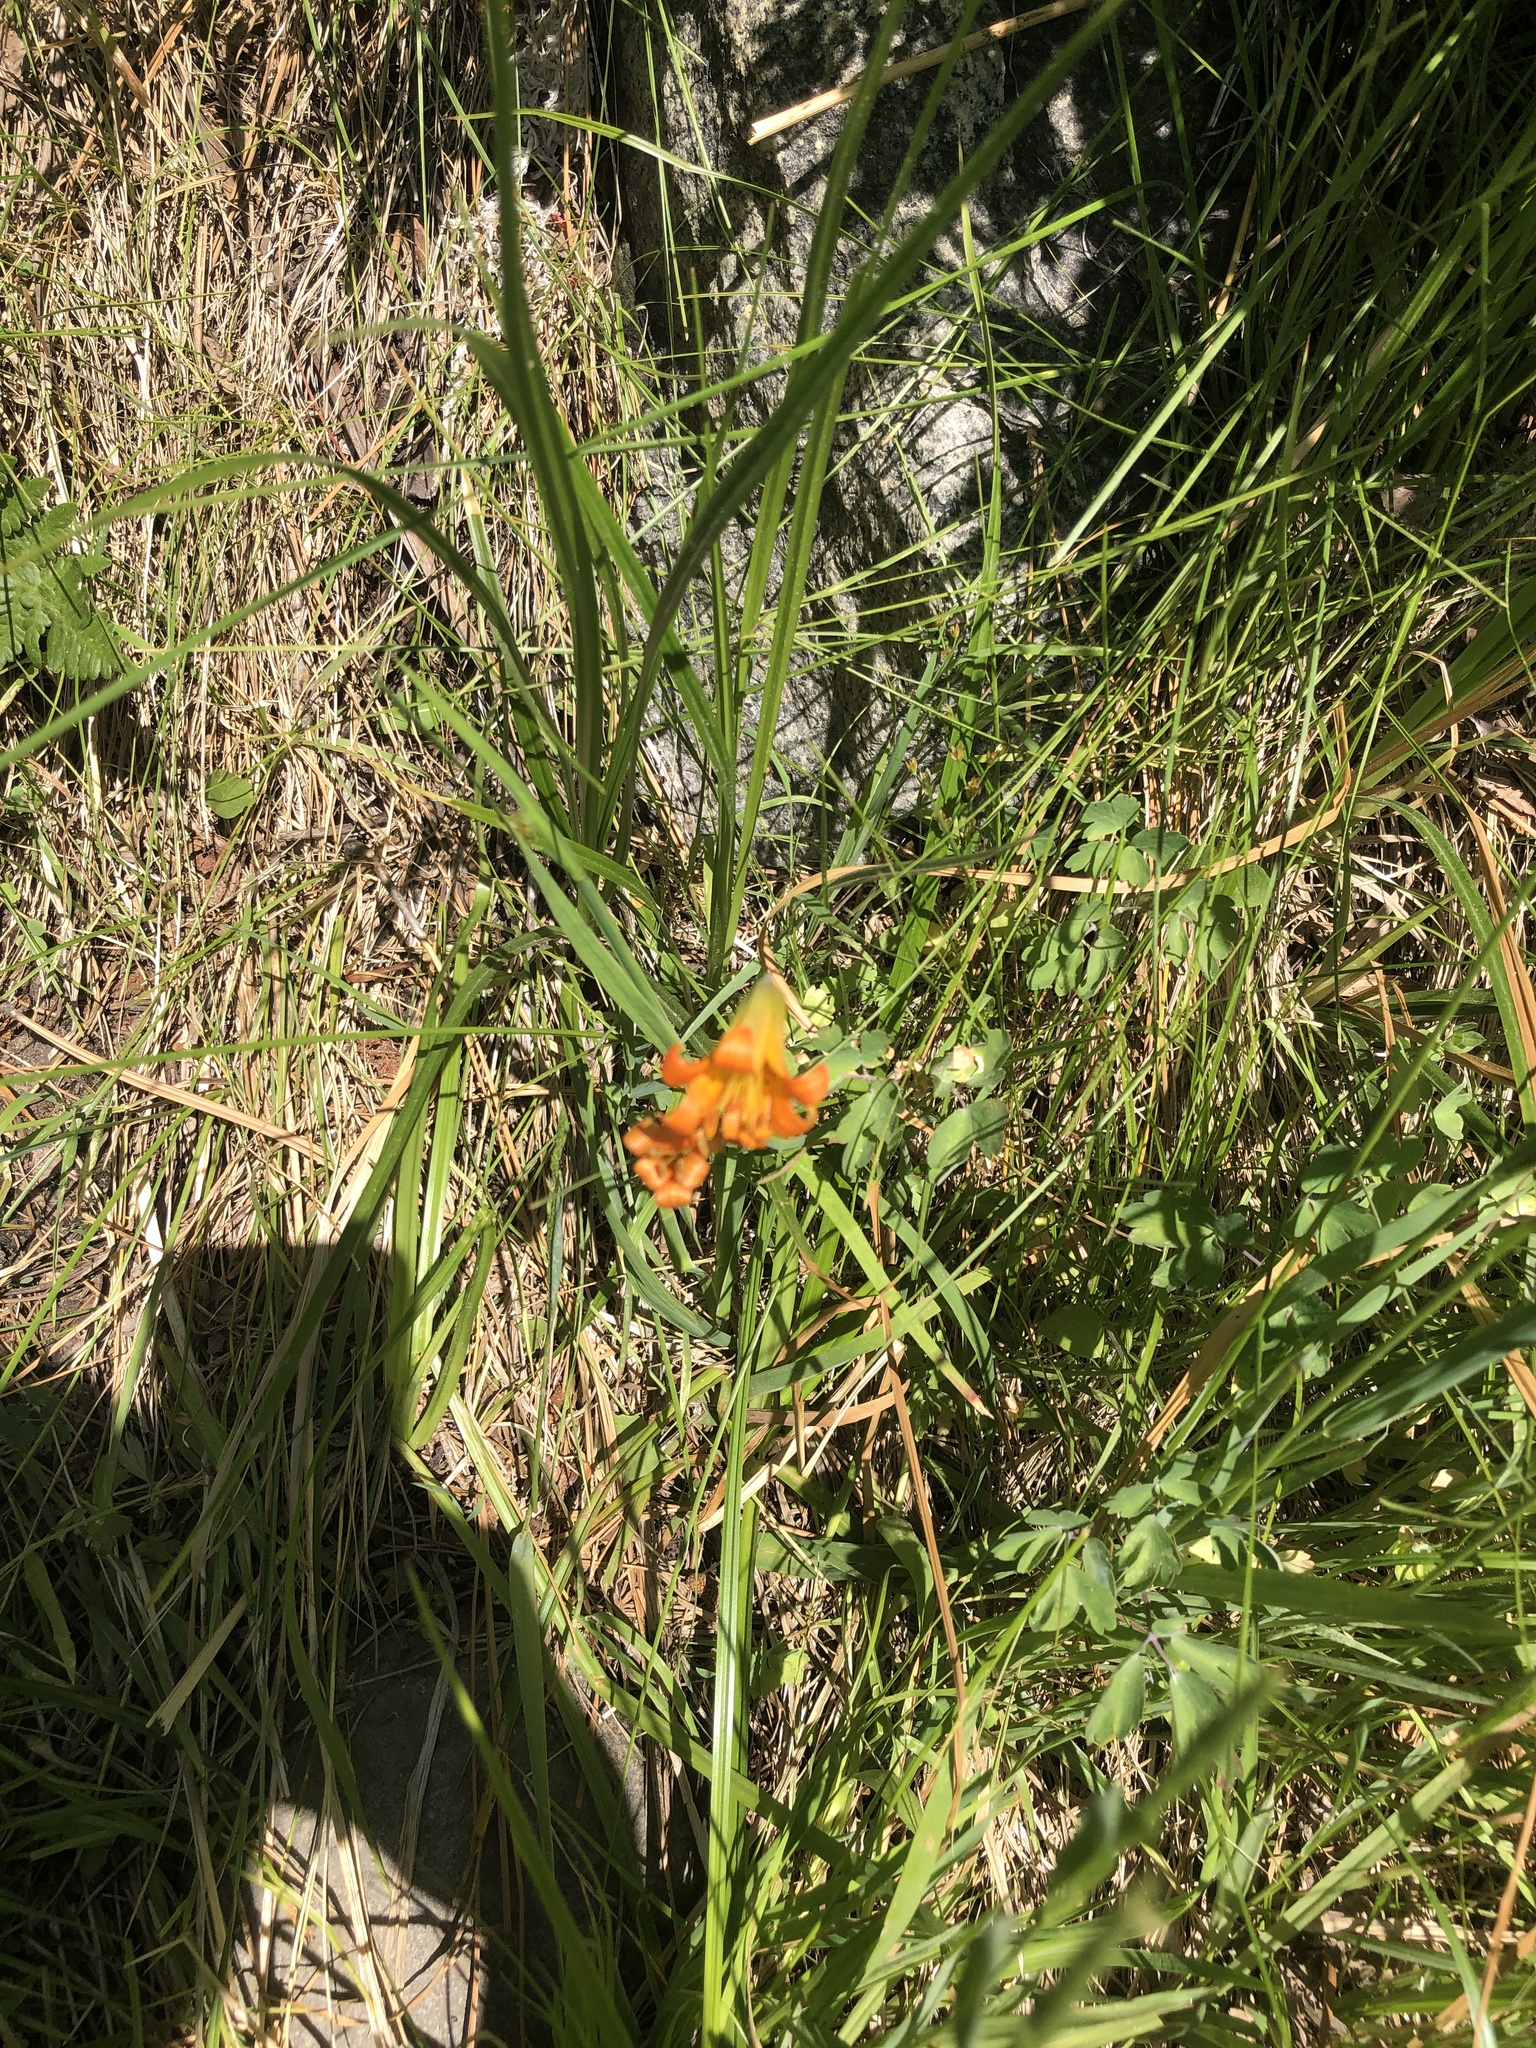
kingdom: Plantae
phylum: Tracheophyta
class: Liliopsida
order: Liliales
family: Liliaceae
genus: Lilium
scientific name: Lilium parvum
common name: Alpine lily
